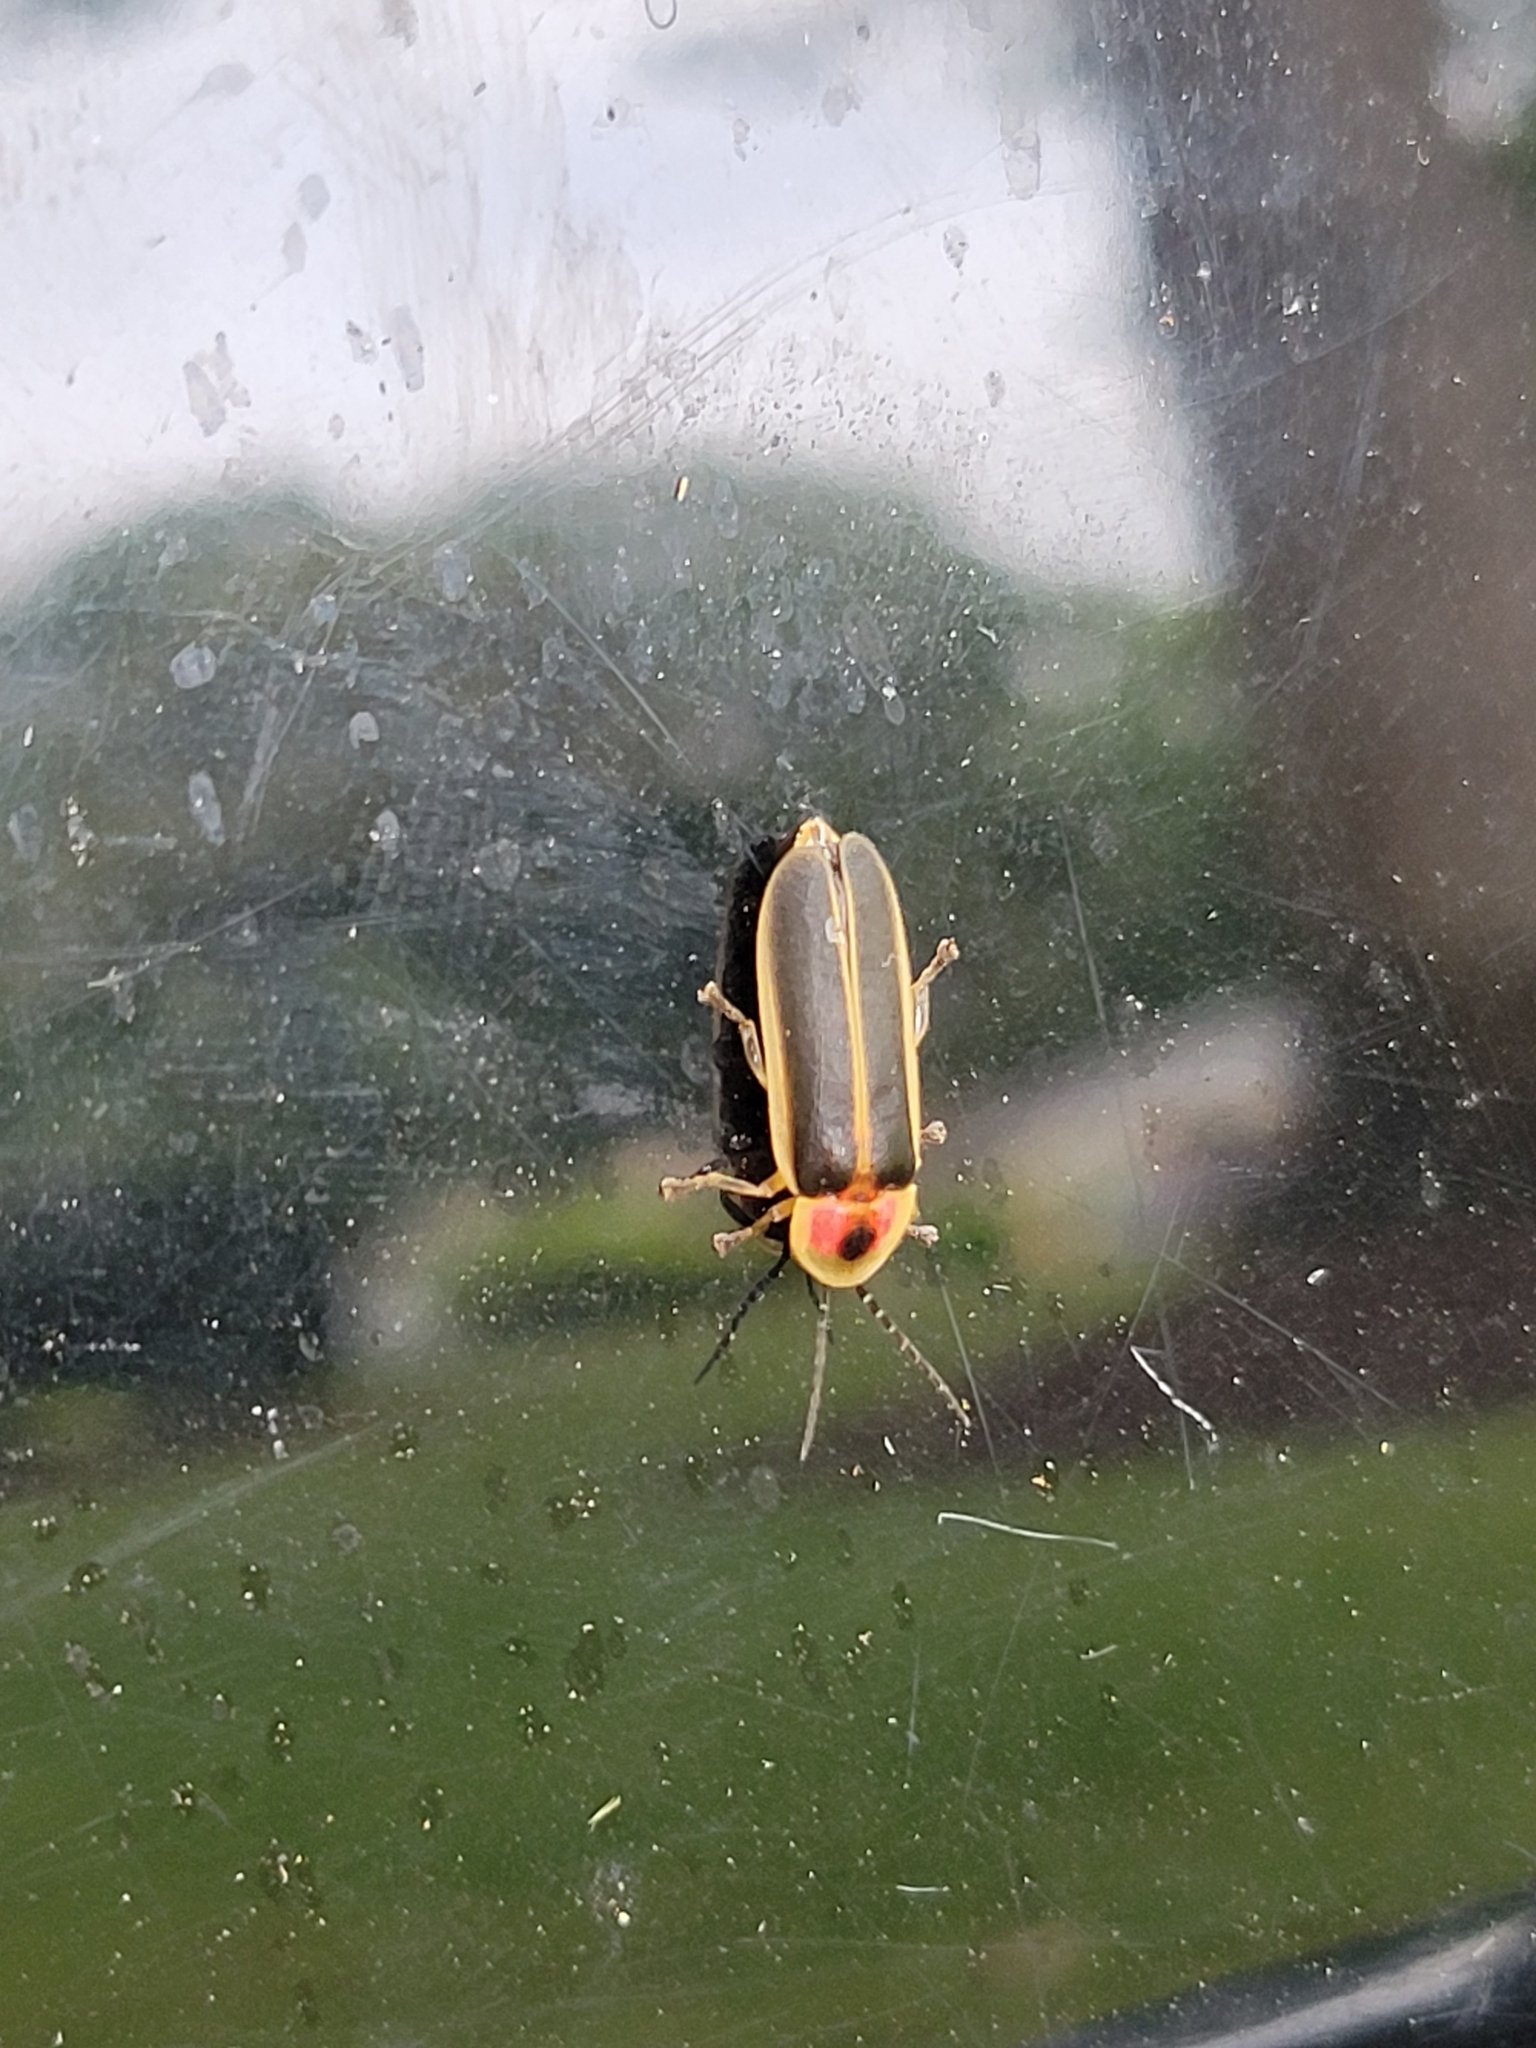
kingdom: Animalia
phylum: Arthropoda
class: Insecta
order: Coleoptera
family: Lampyridae
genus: Photinus
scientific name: Photinus pyralis
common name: Big dipper firefly
